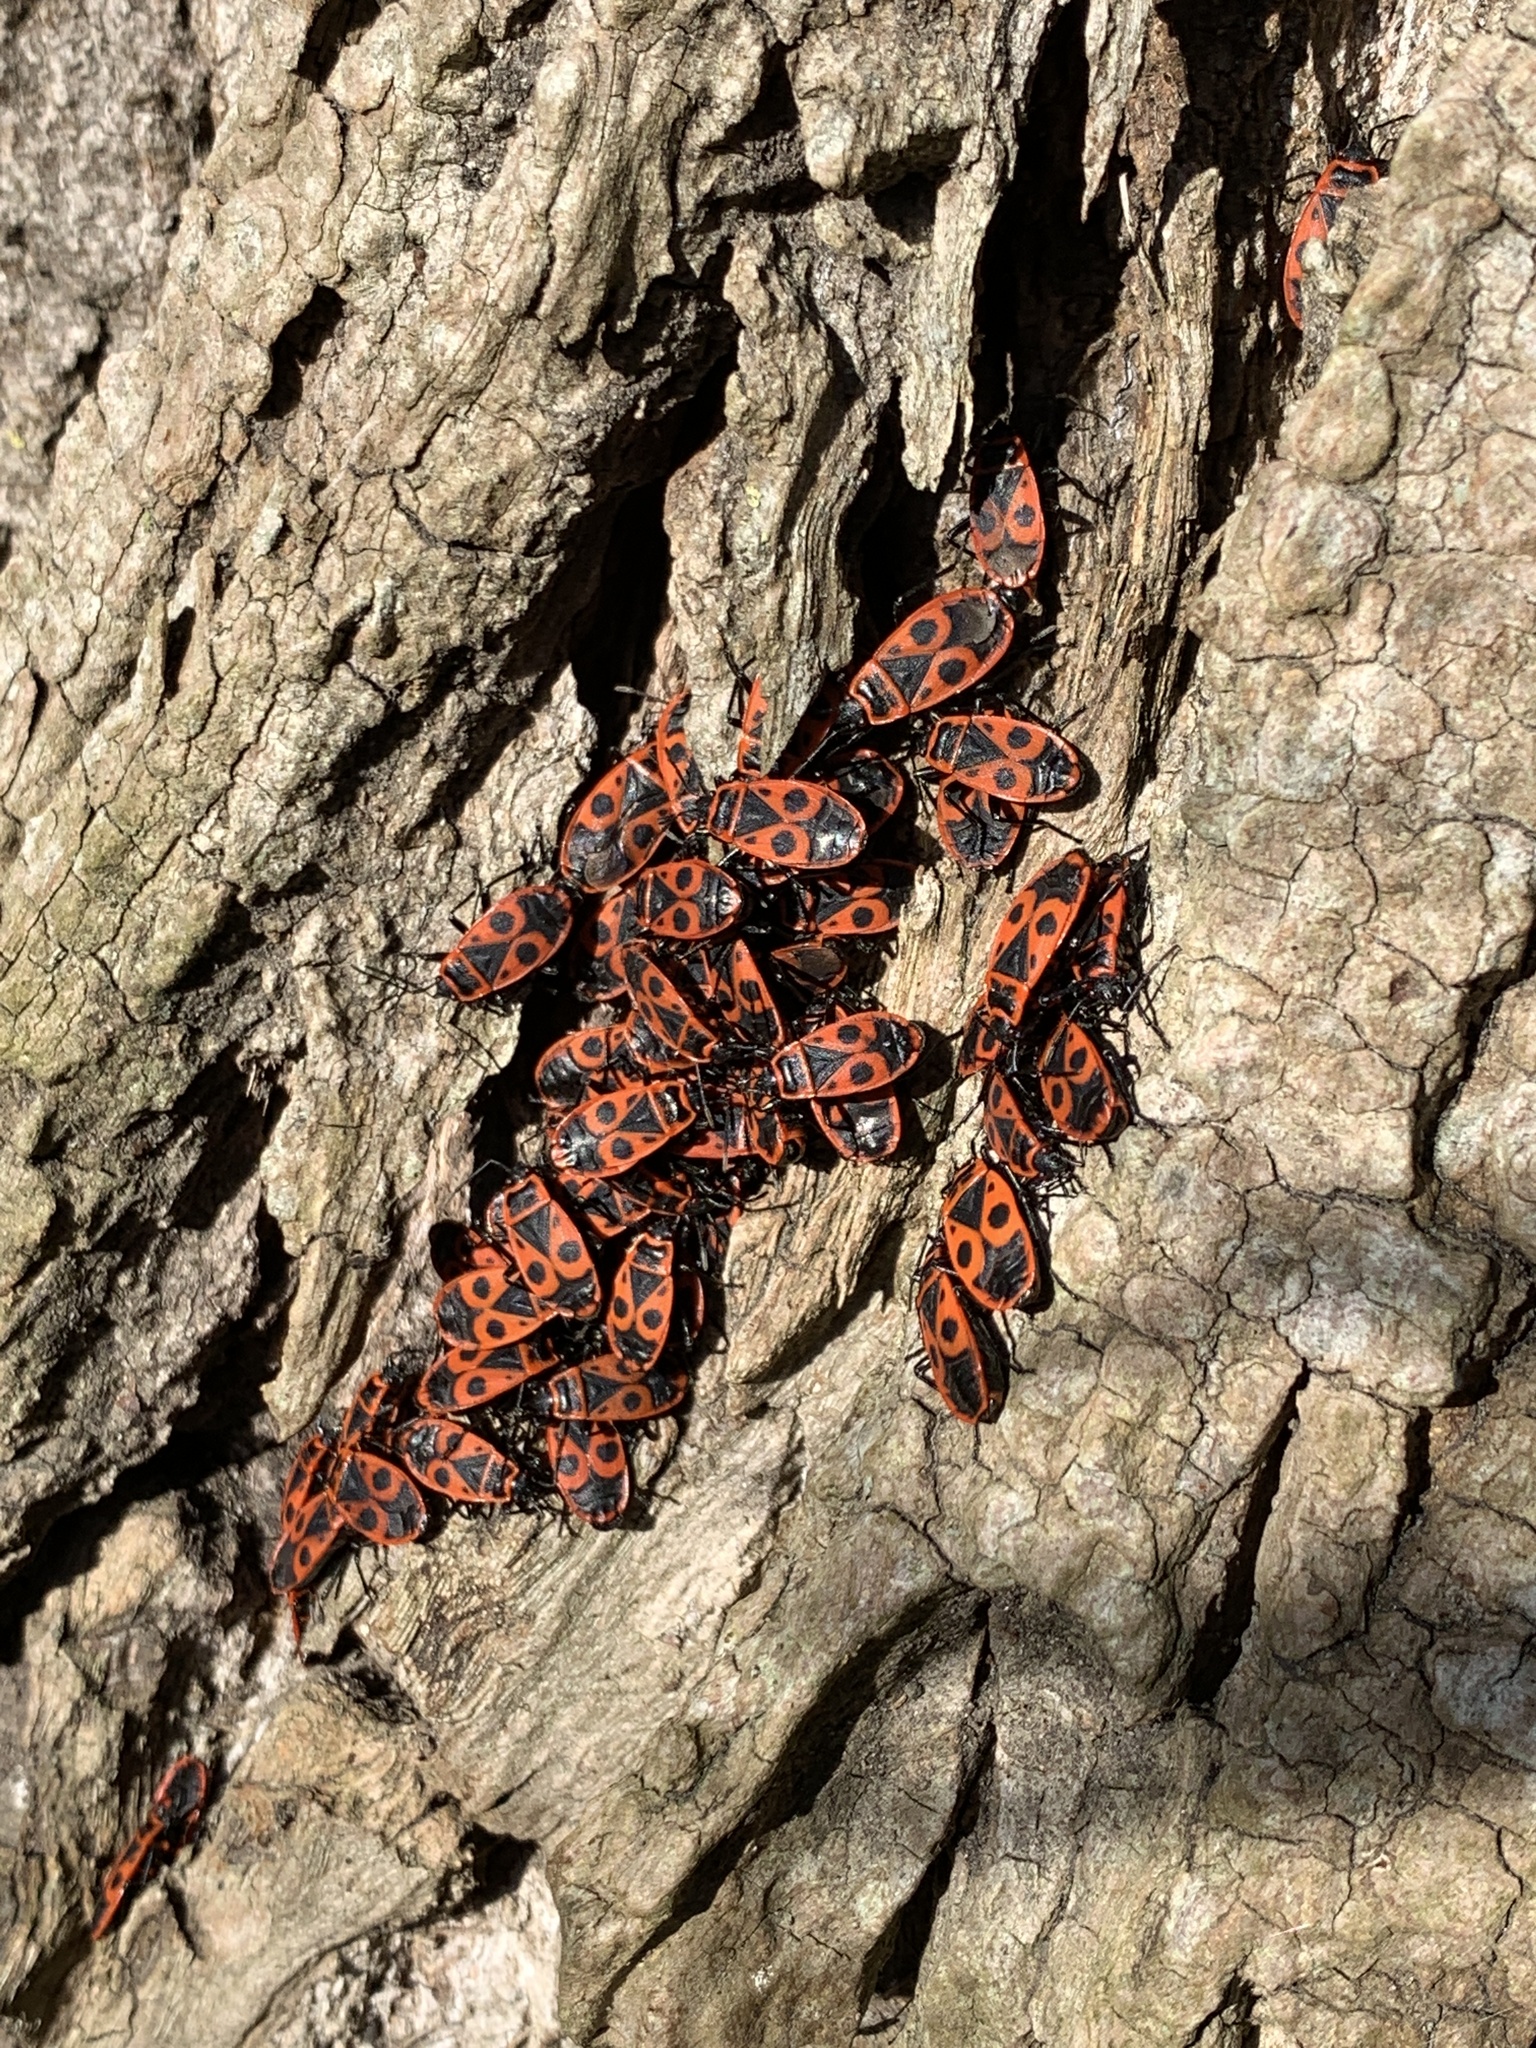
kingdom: Animalia
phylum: Arthropoda
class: Insecta
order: Hemiptera
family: Pyrrhocoridae
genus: Pyrrhocoris
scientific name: Pyrrhocoris apterus
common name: Firebug
